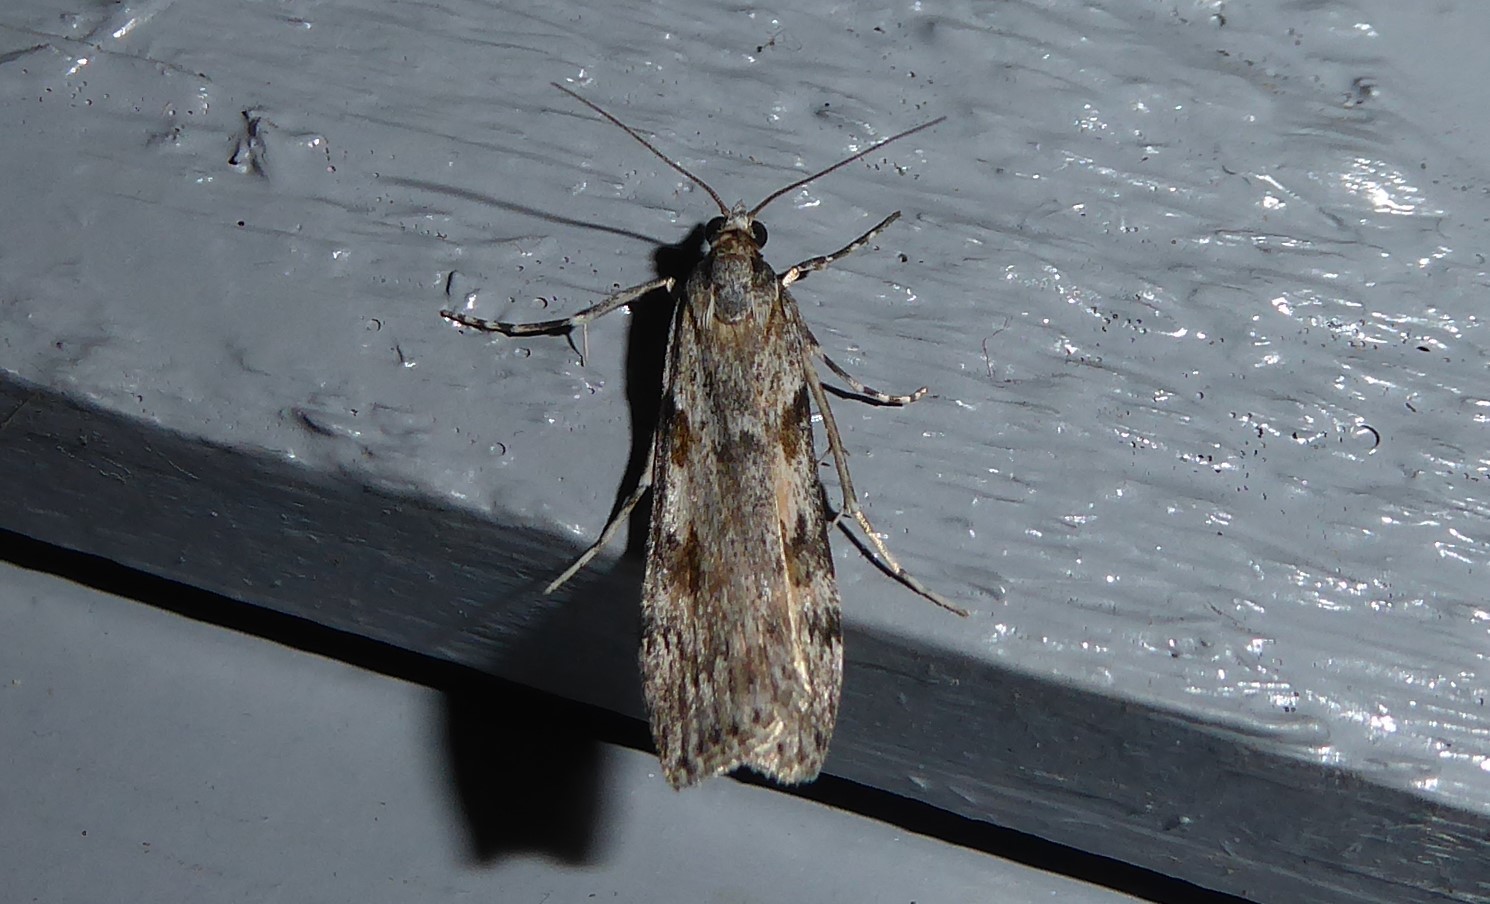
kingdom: Animalia
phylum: Arthropoda
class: Insecta
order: Lepidoptera
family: Crambidae
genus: Scoparia
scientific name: Scoparia halopis
